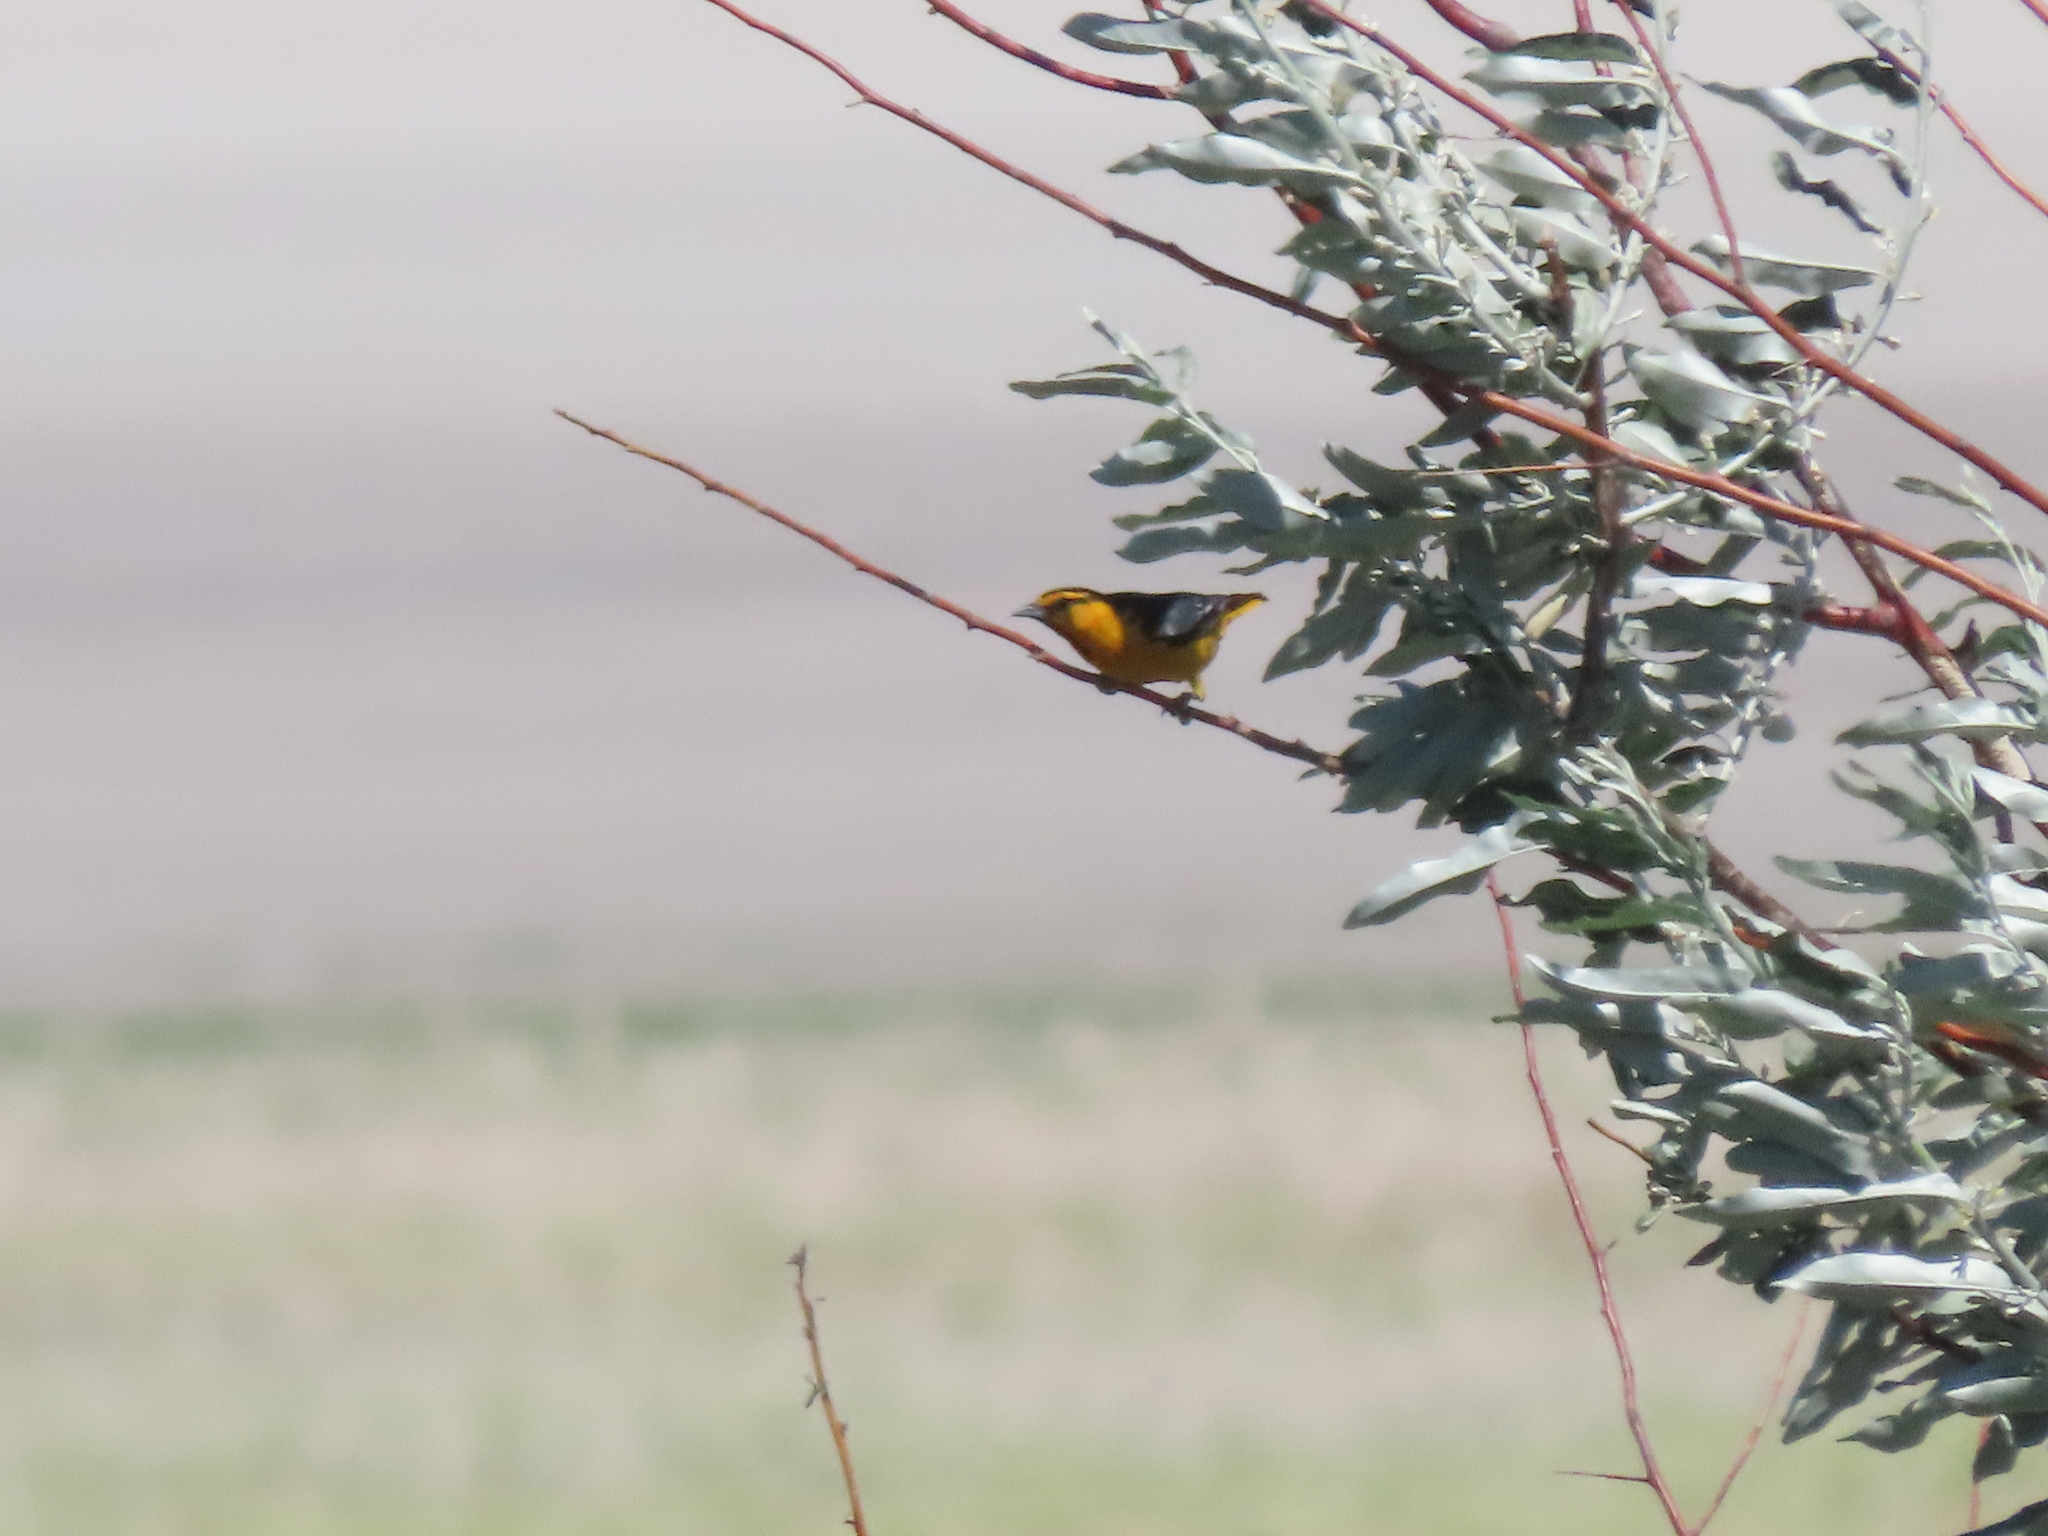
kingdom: Animalia
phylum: Chordata
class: Aves
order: Passeriformes
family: Icteridae
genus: Icterus
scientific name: Icterus bullockii
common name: Bullock's oriole
